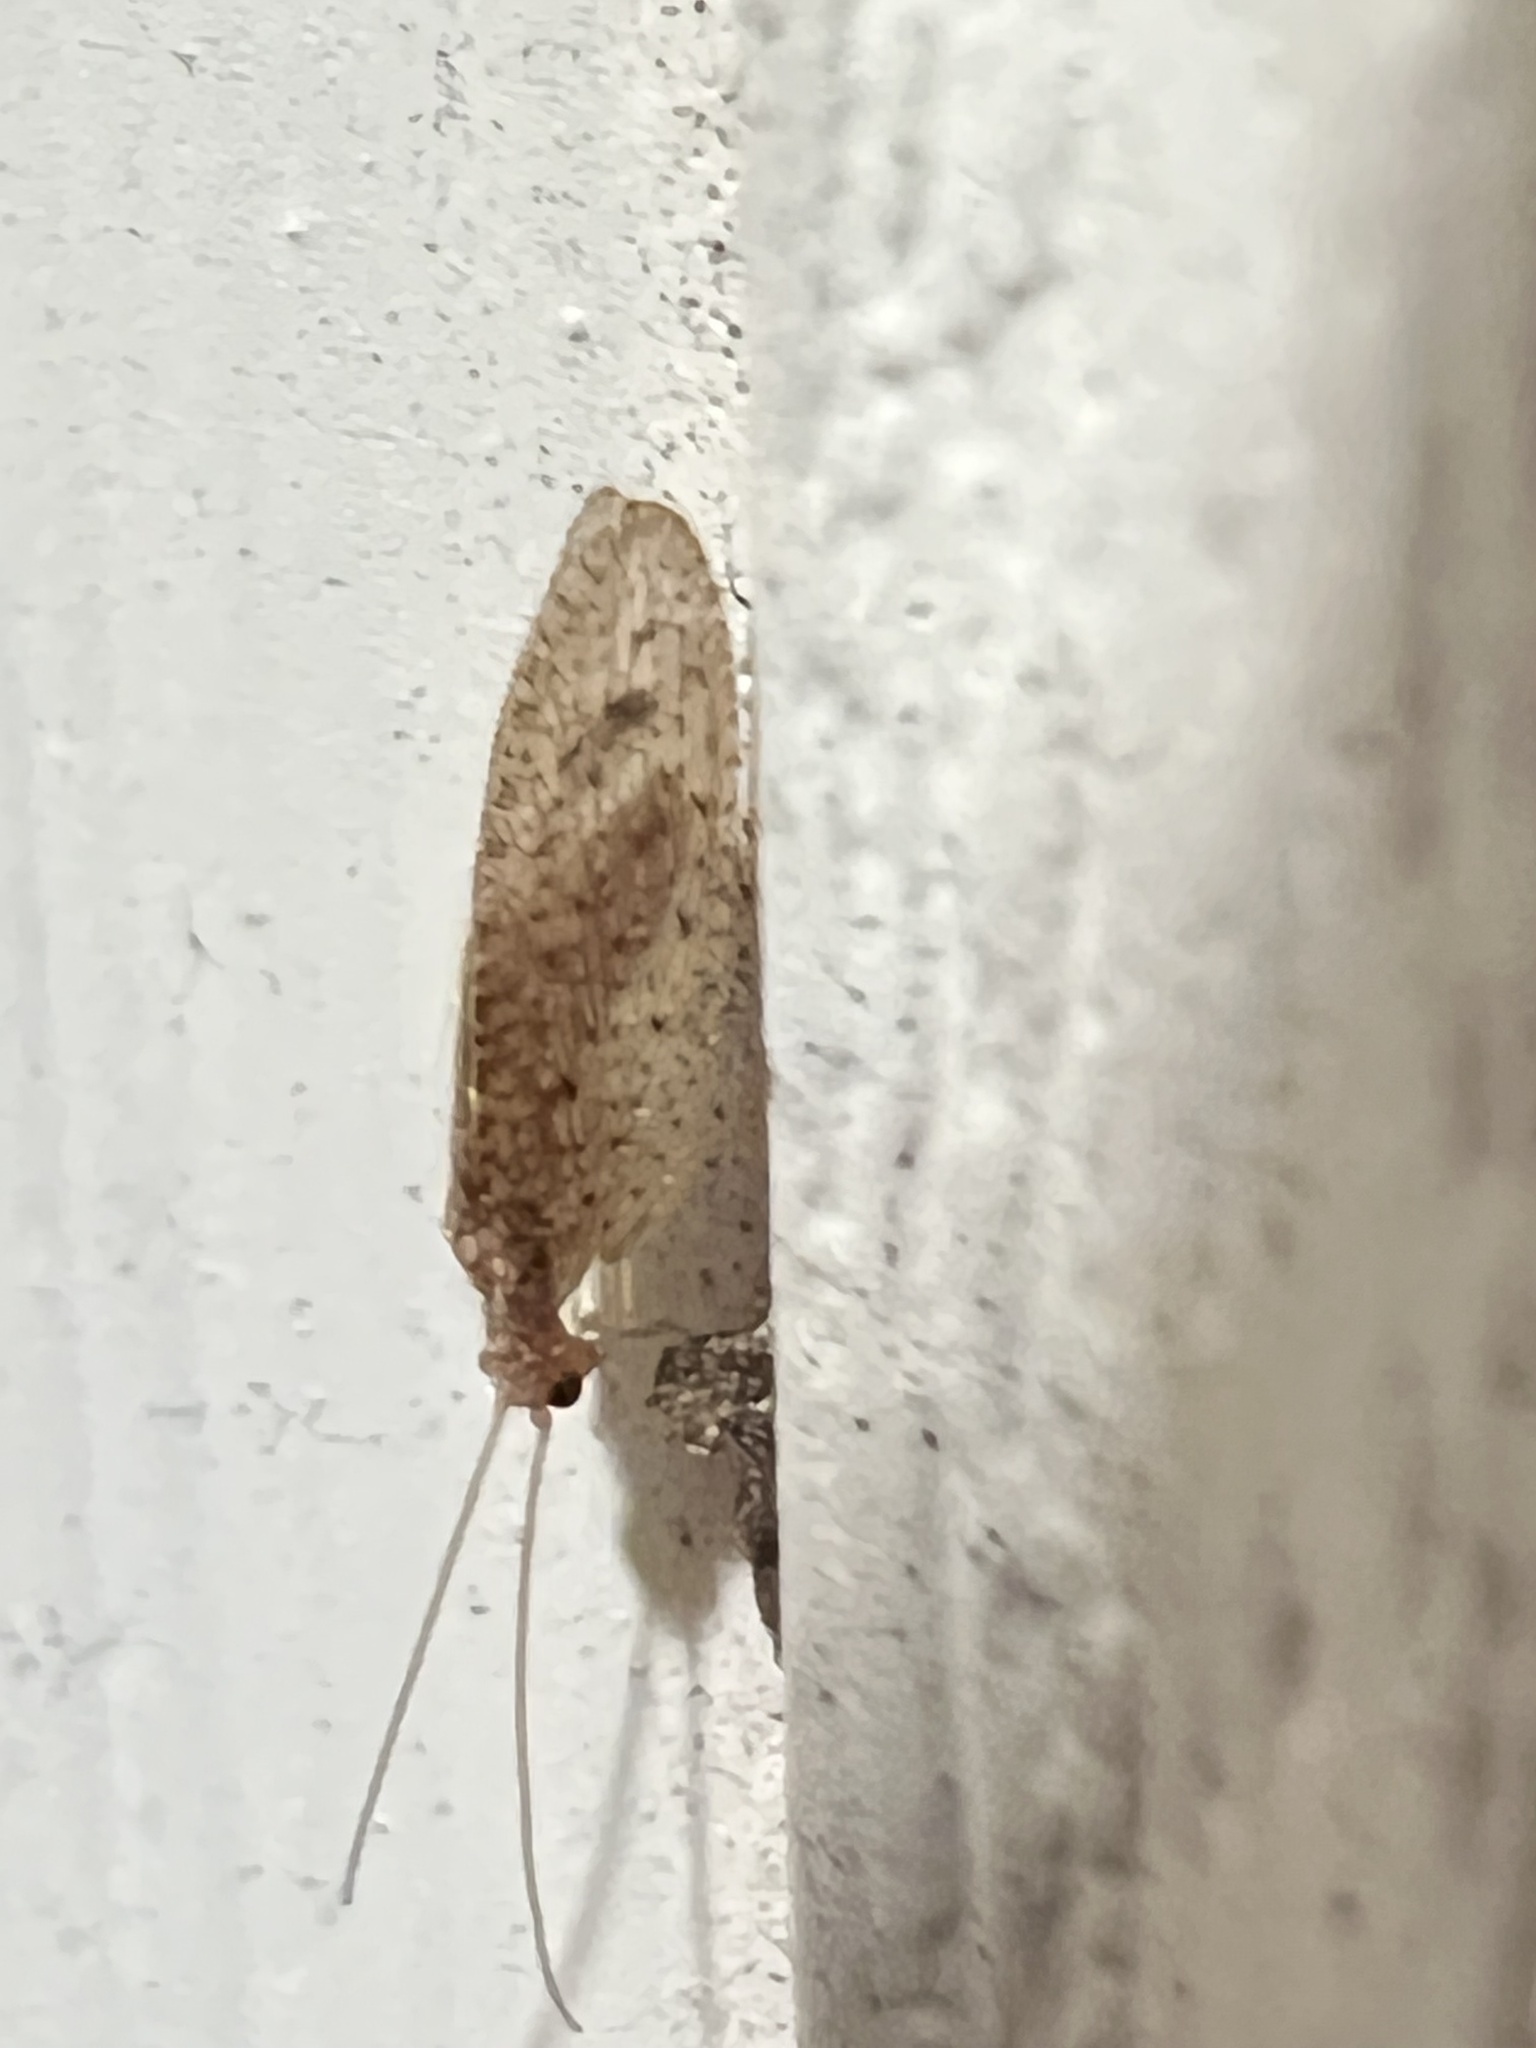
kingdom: Animalia
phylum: Arthropoda
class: Insecta
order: Neuroptera
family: Hemerobiidae
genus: Micromus
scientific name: Micromus subanticus
